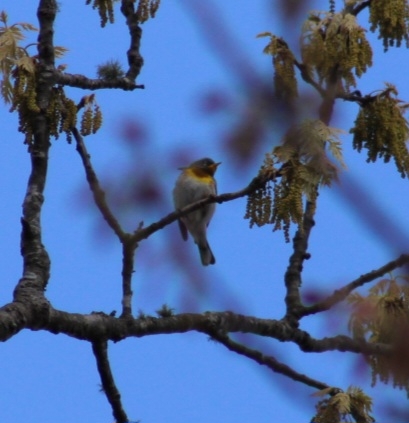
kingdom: Animalia
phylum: Chordata
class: Aves
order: Passeriformes
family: Parulidae
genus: Setophaga
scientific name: Setophaga americana
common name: Northern parula
